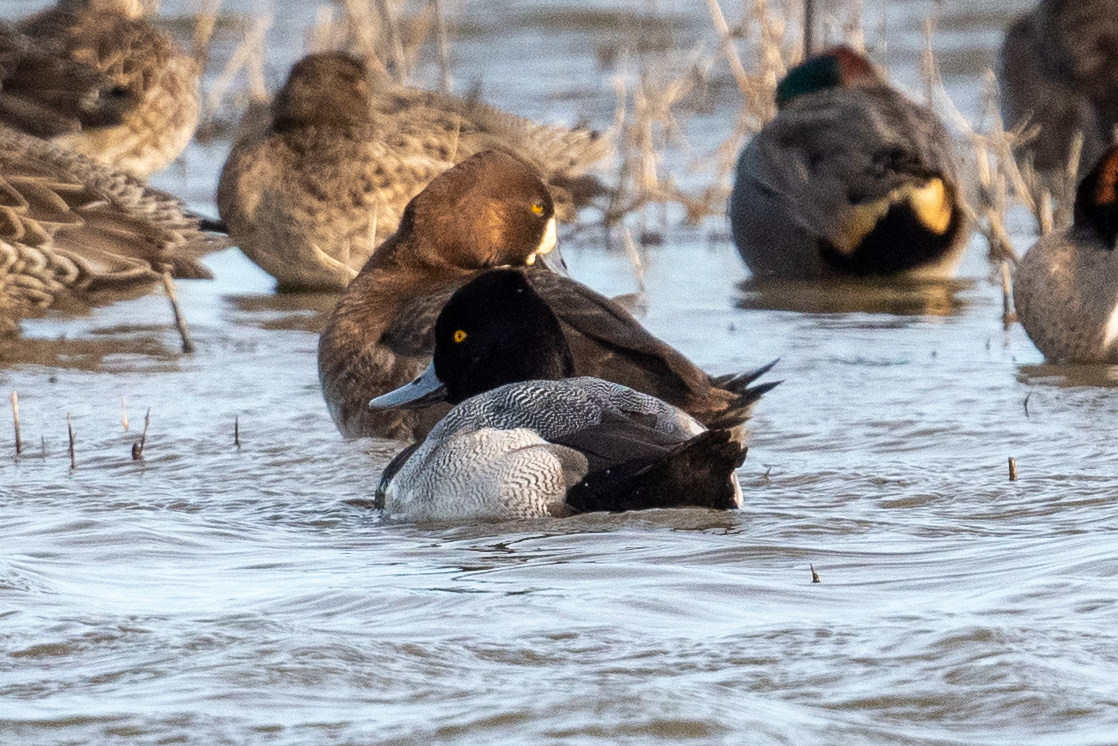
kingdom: Animalia
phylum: Chordata
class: Aves
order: Anseriformes
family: Anatidae
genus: Aythya
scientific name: Aythya affinis
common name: Lesser scaup
